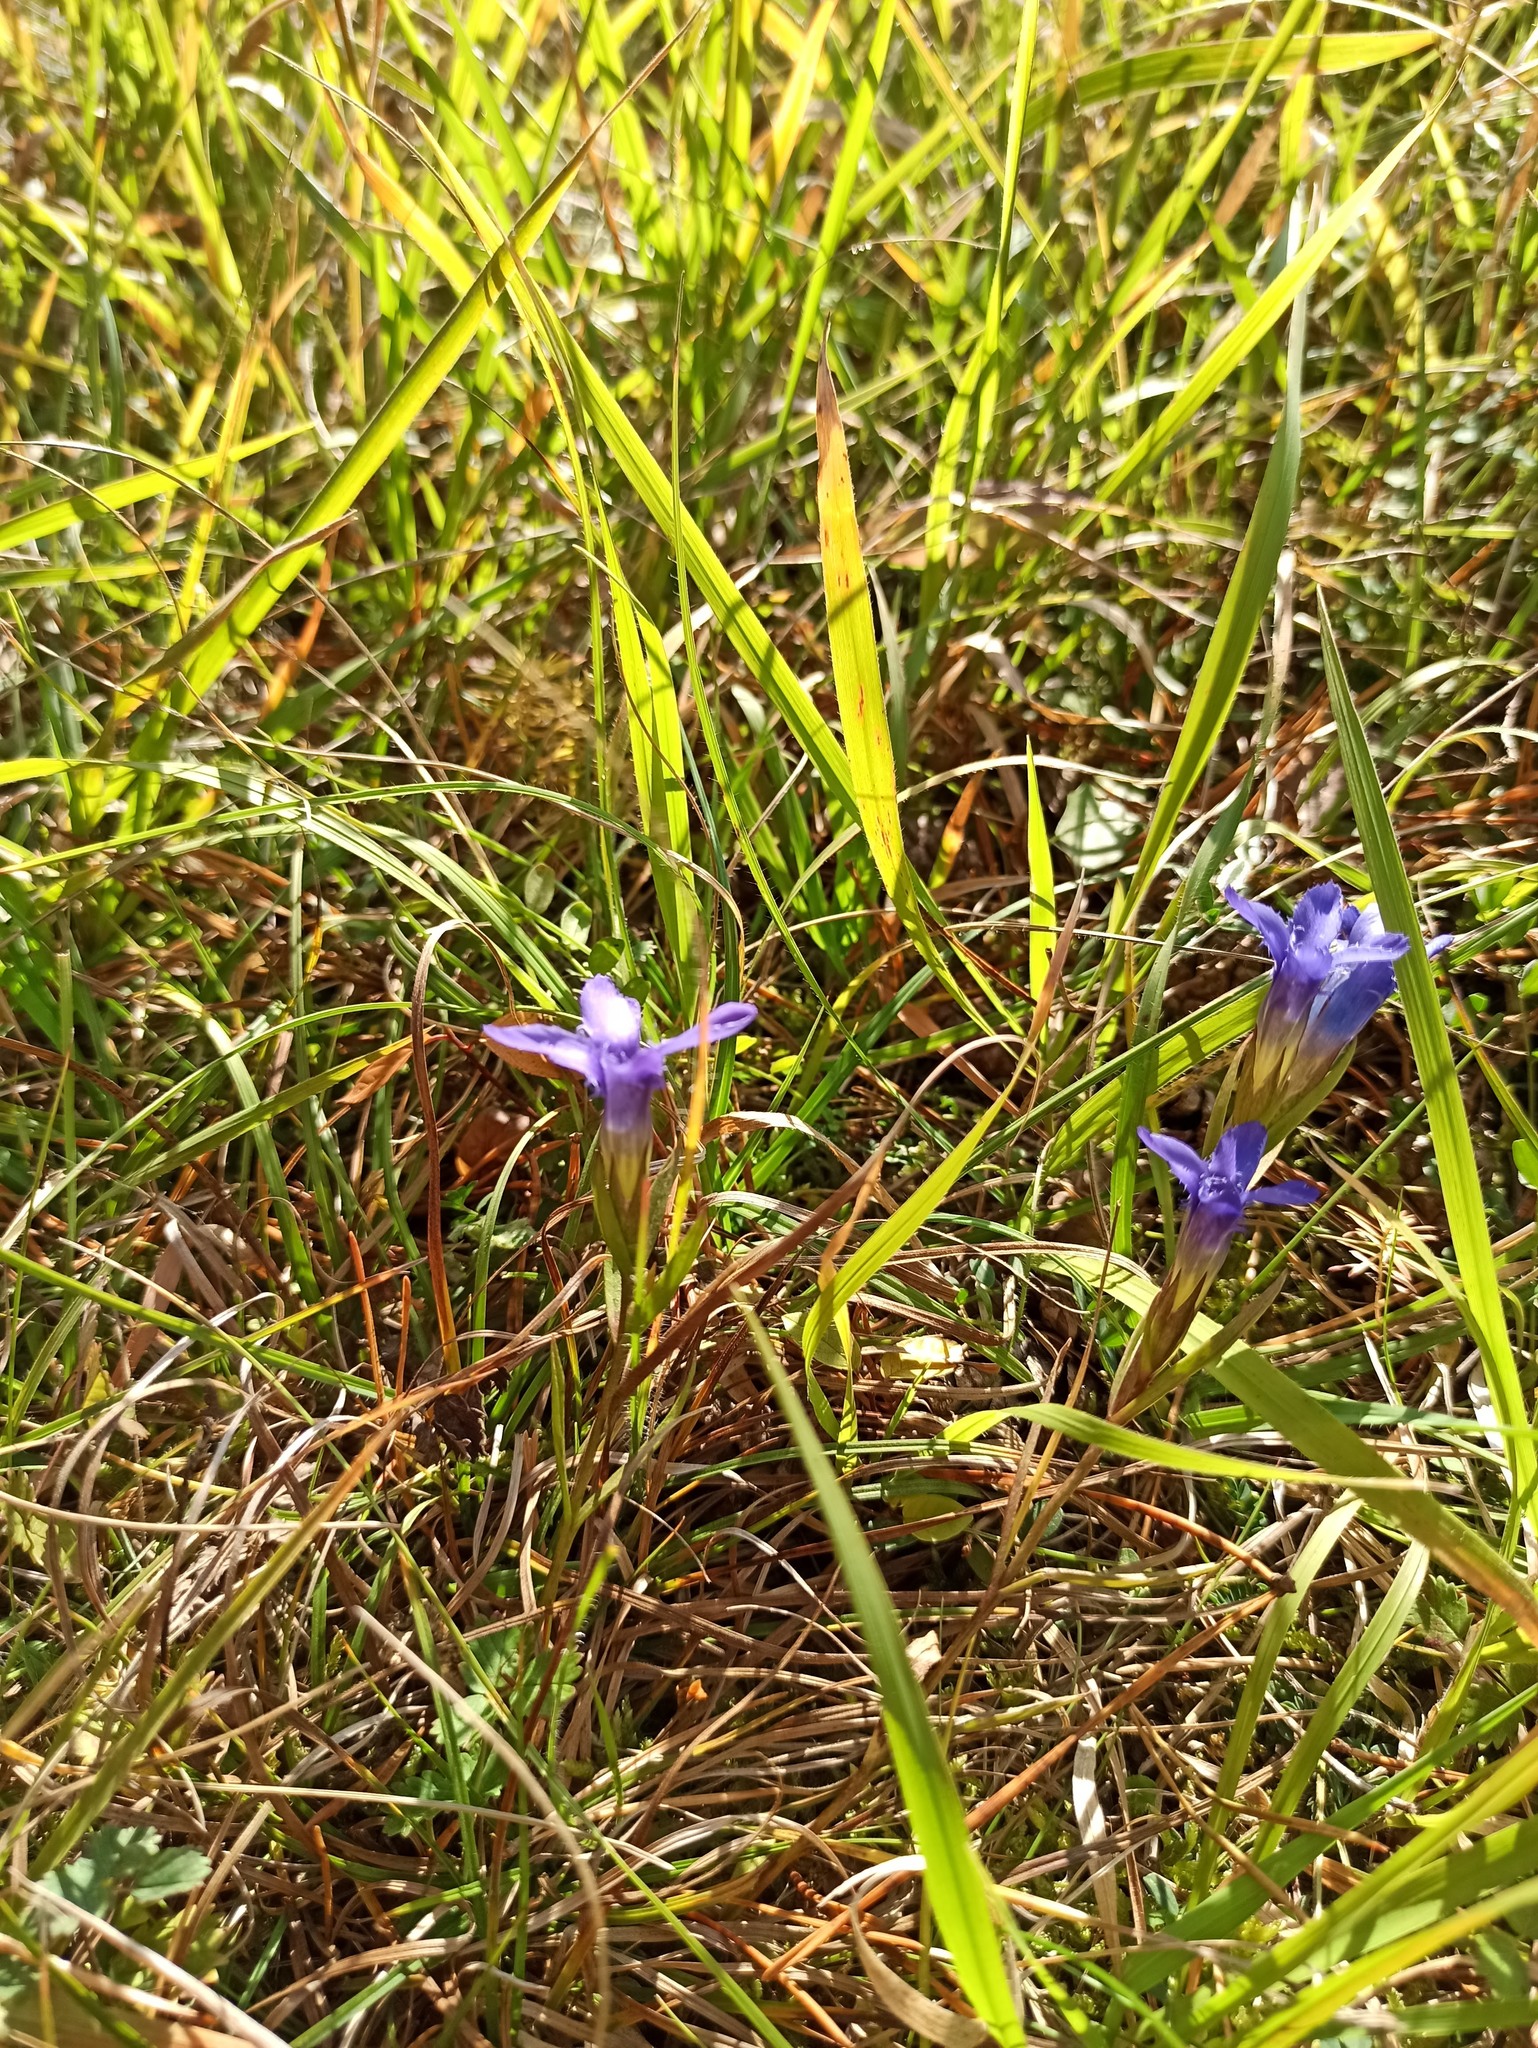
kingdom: Plantae
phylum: Tracheophyta
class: Magnoliopsida
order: Gentianales
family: Gentianaceae
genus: Gentianopsis
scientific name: Gentianopsis ciliata
